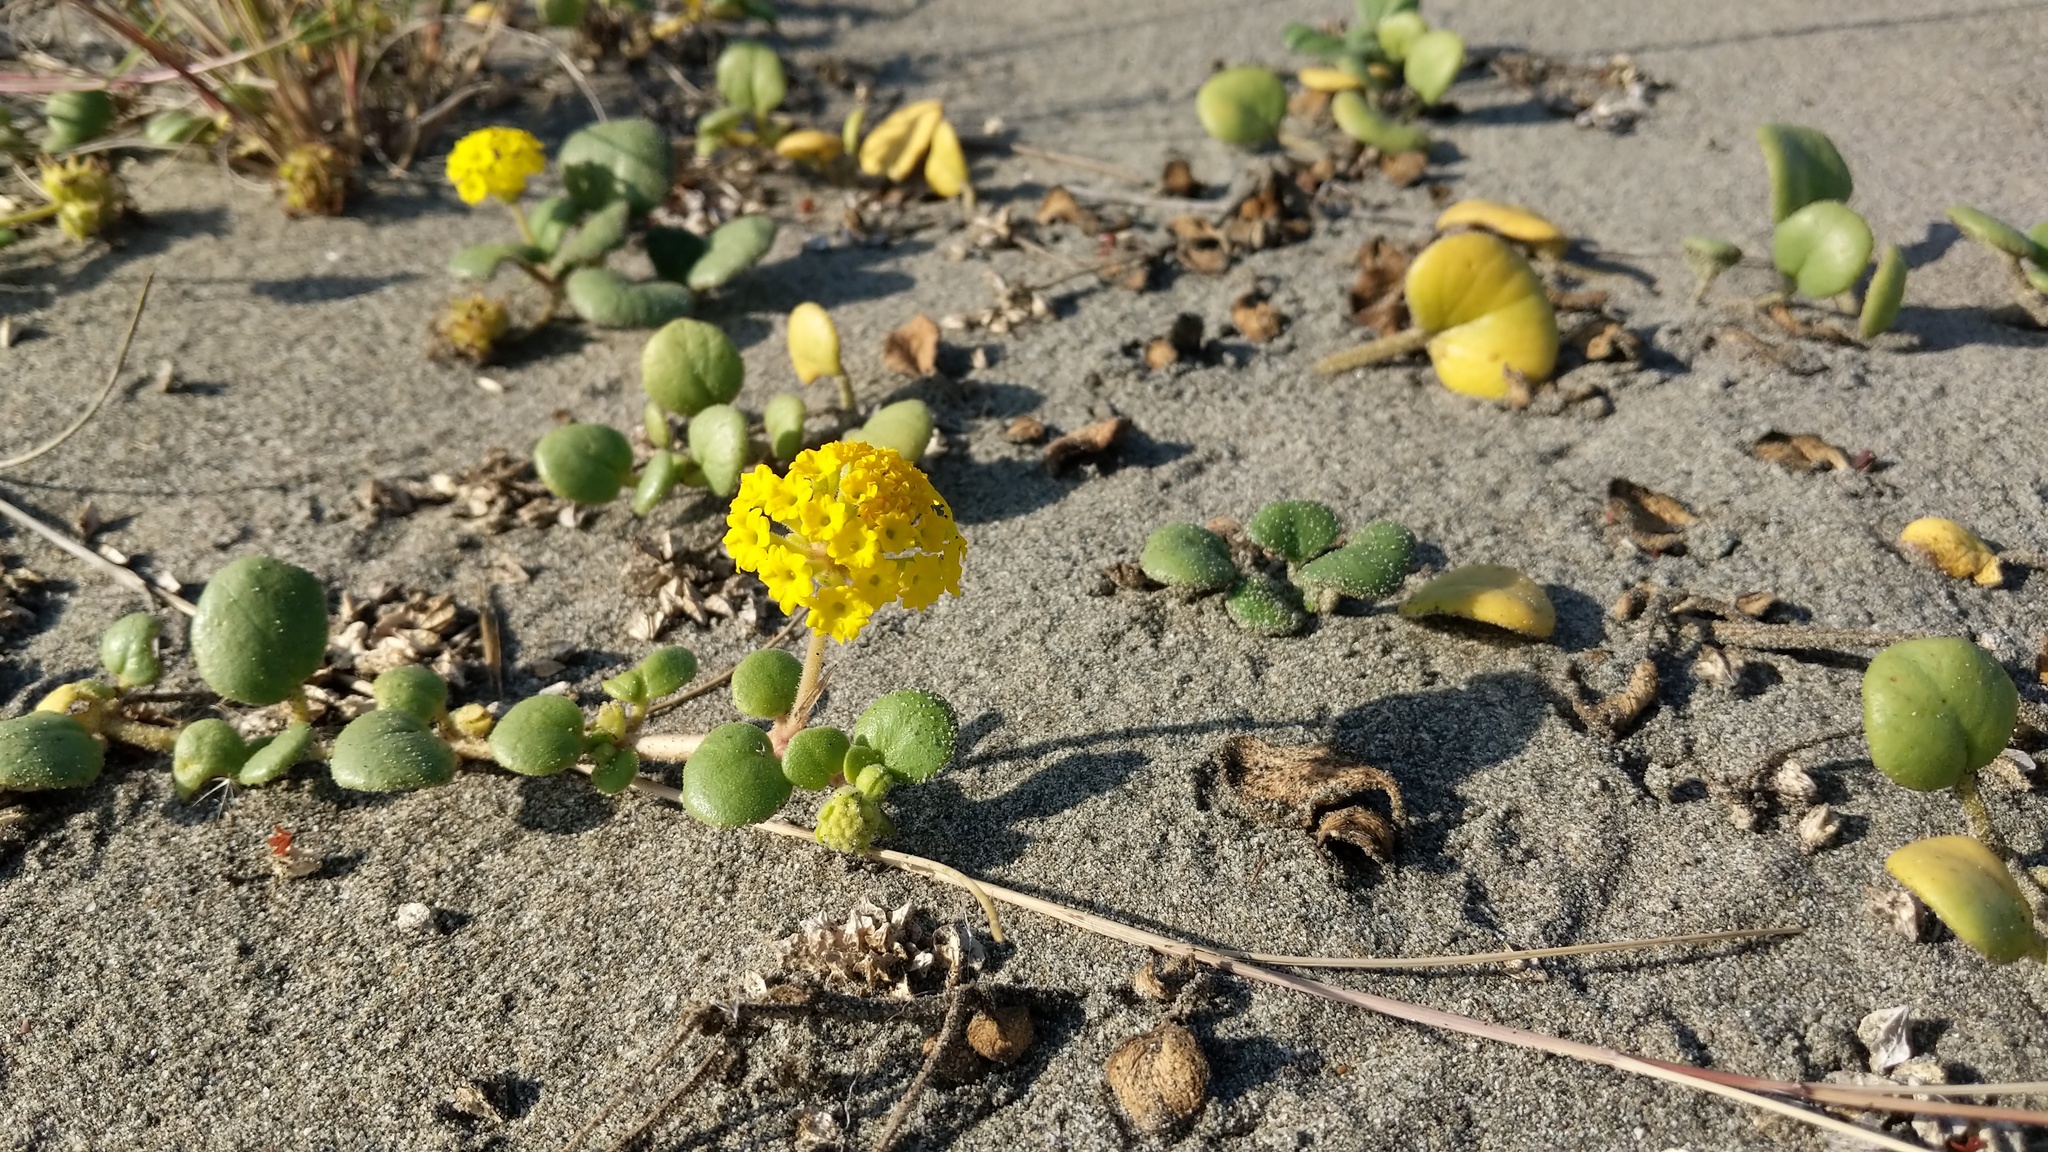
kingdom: Plantae
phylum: Tracheophyta
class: Magnoliopsida
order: Caryophyllales
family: Nyctaginaceae
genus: Abronia
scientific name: Abronia latifolia
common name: Yellow sand-verbena
